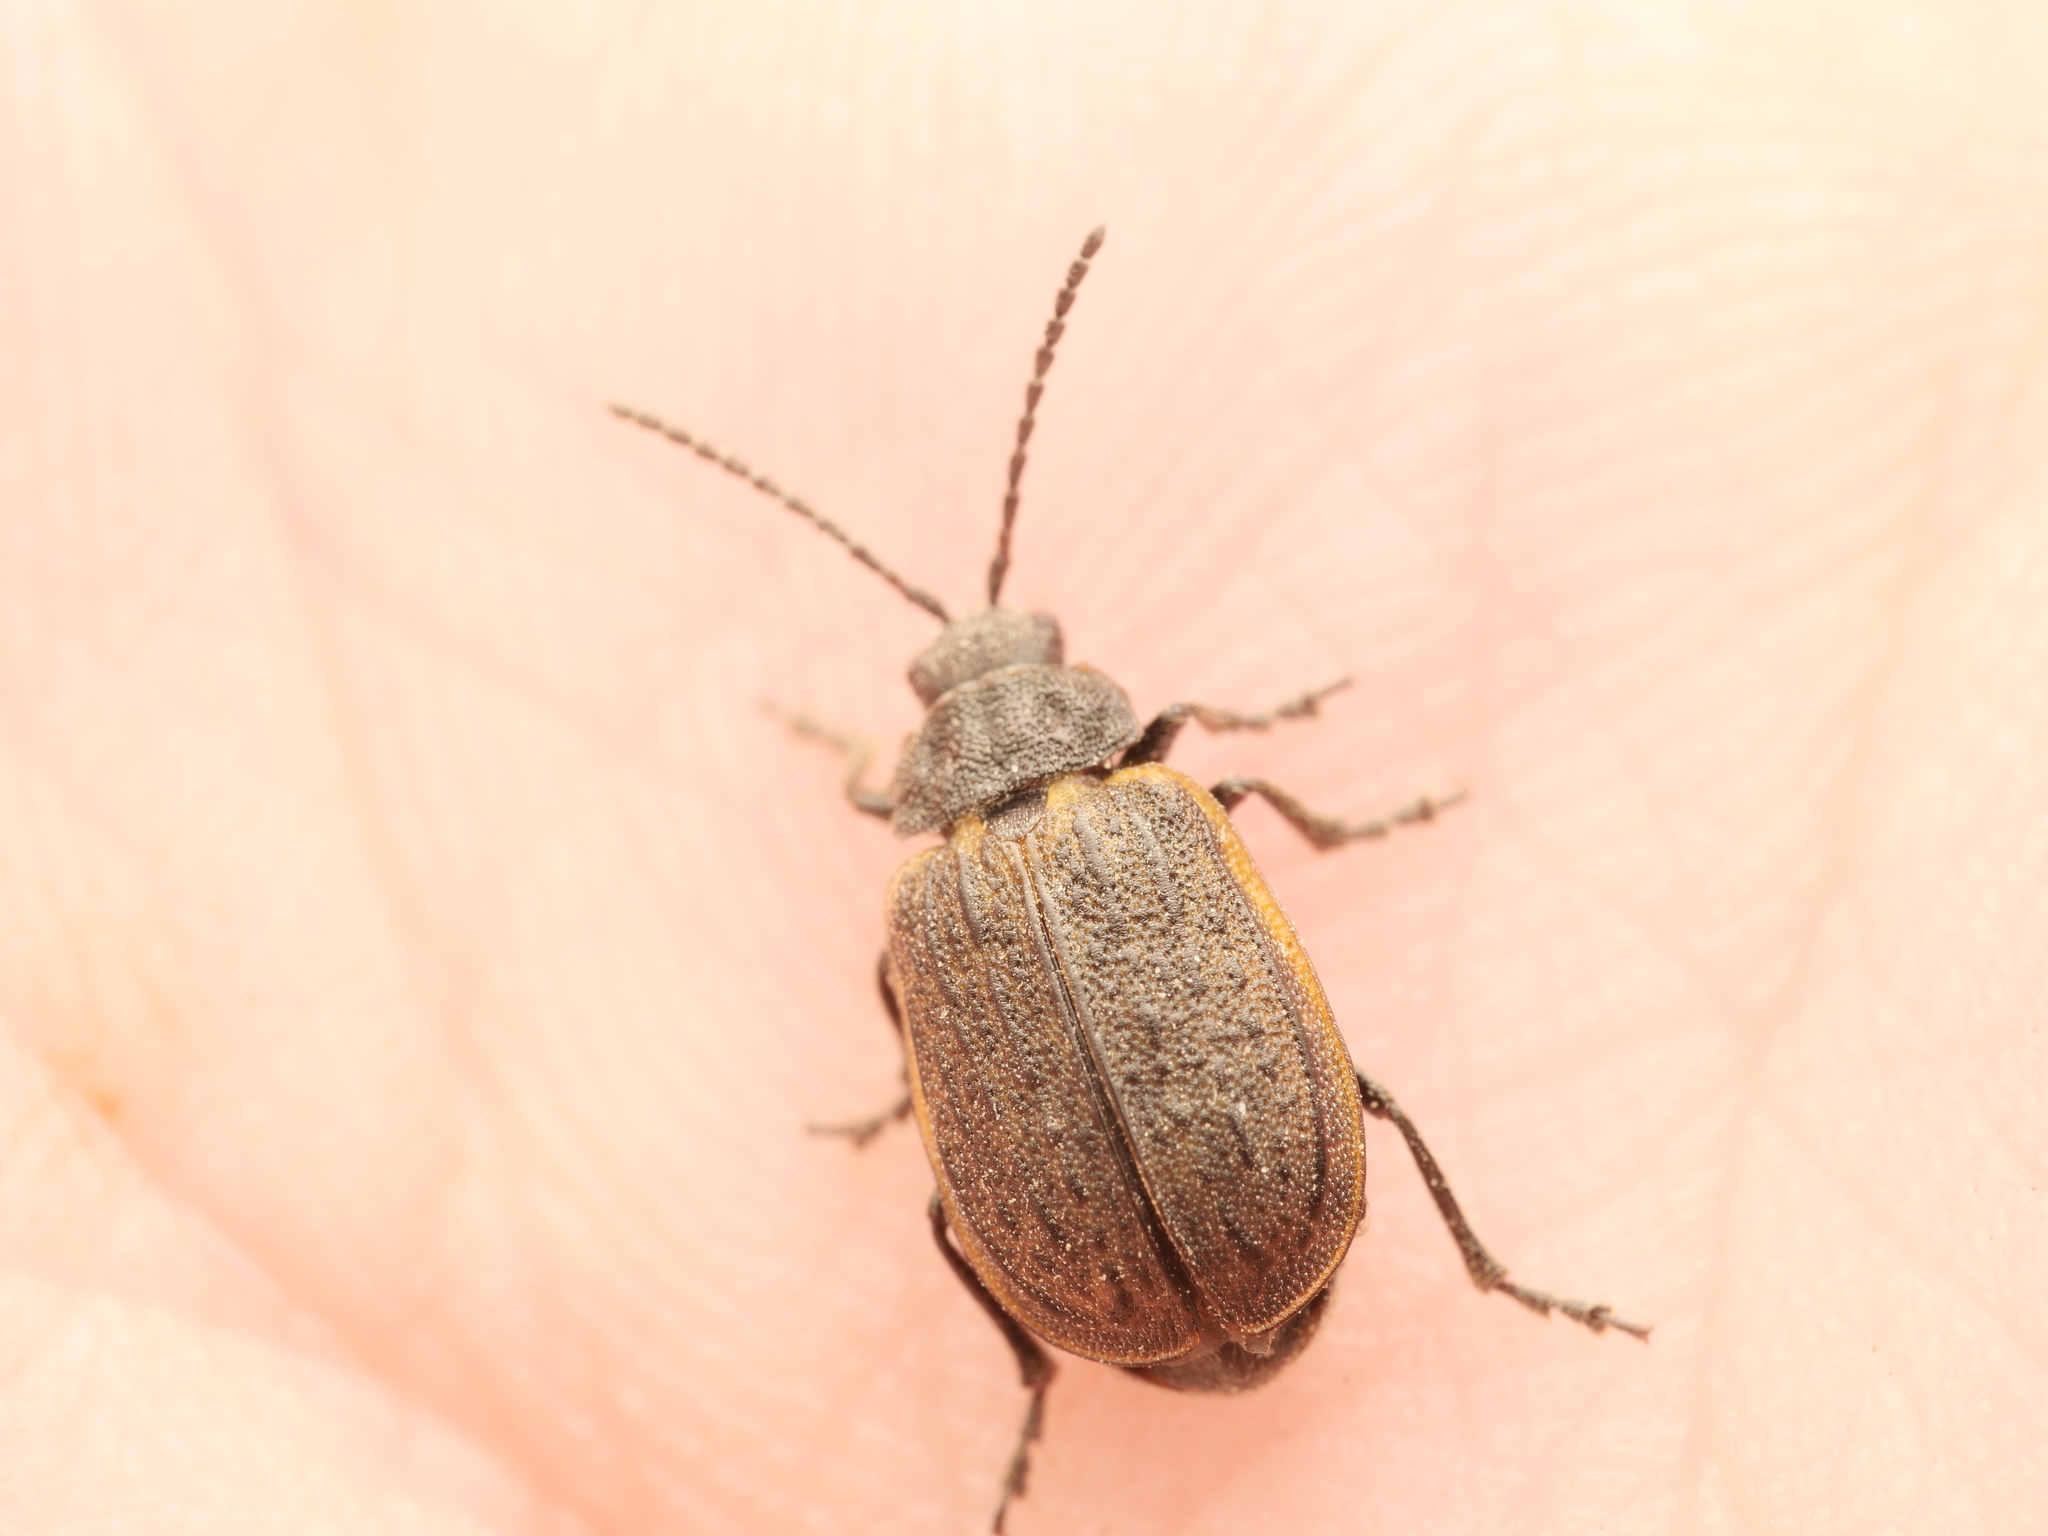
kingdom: Animalia
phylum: Arthropoda
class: Insecta
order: Coleoptera
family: Chrysomelidae
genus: Galeruca
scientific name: Galeruca interrupta
